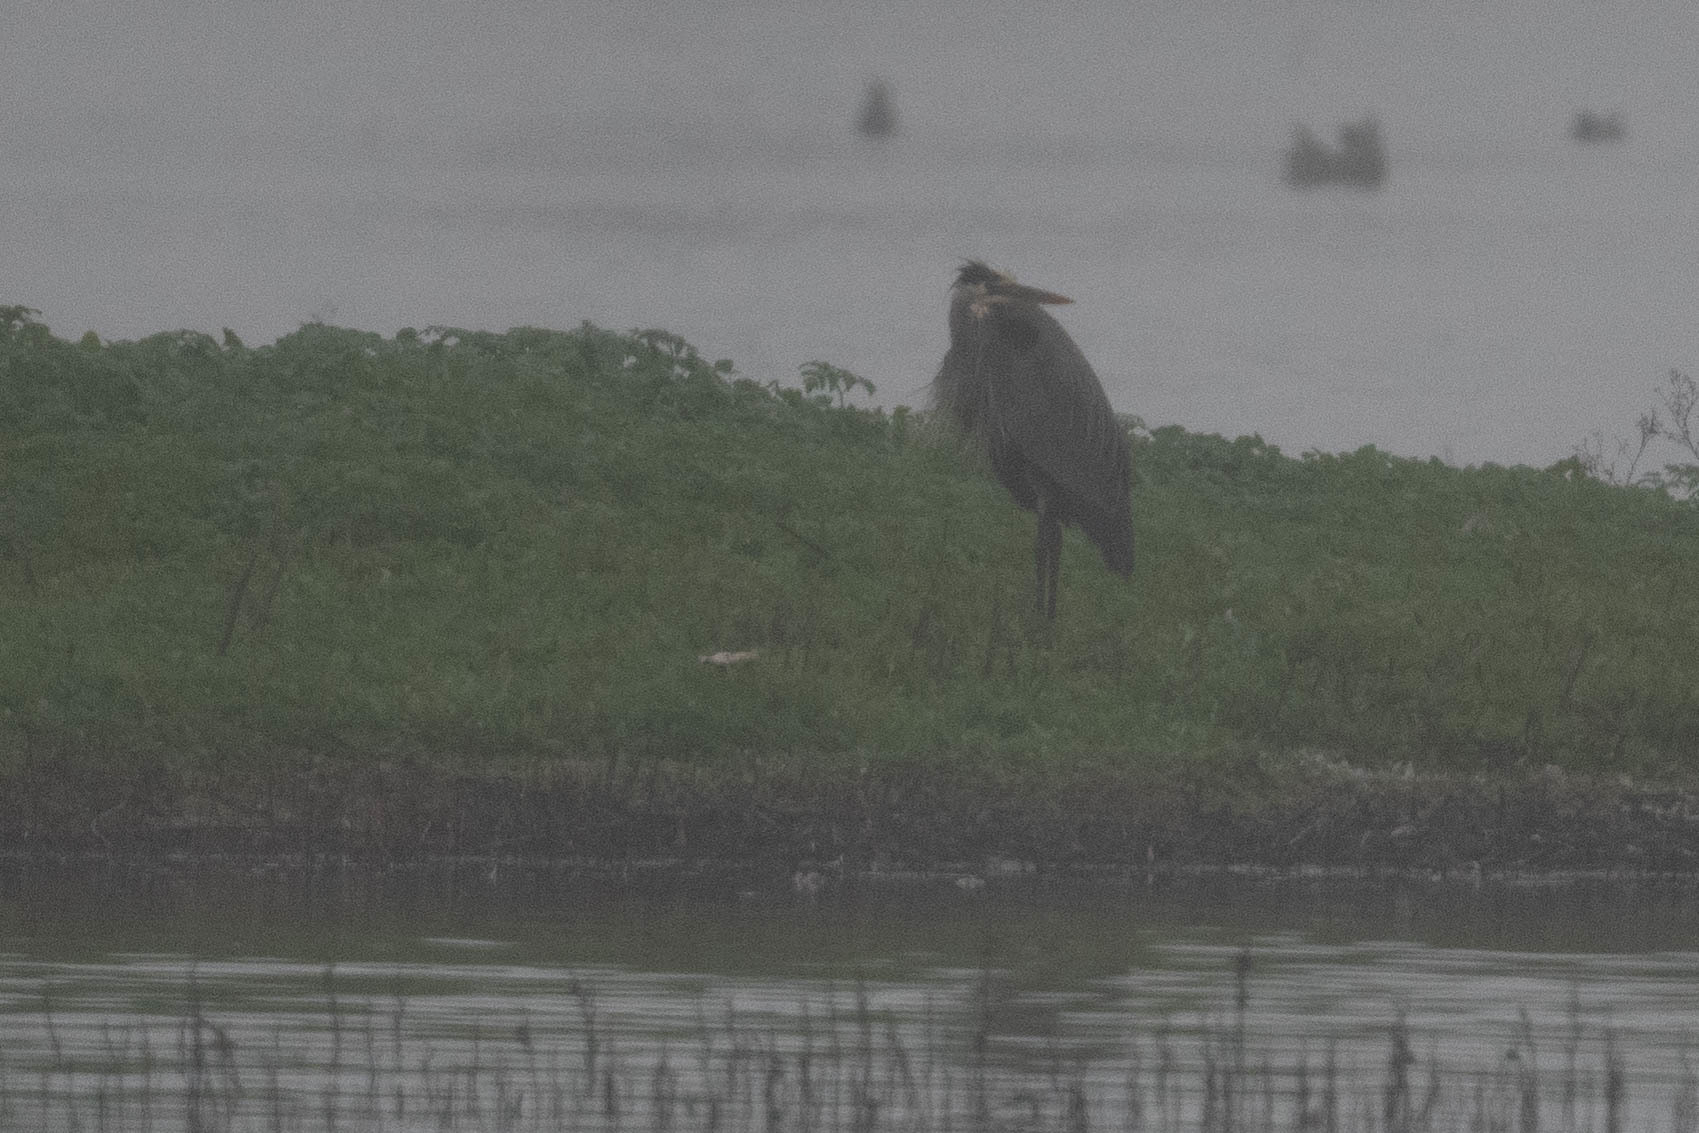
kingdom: Animalia
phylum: Chordata
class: Aves
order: Pelecaniformes
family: Ardeidae
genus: Ardea
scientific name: Ardea herodias
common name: Great blue heron
